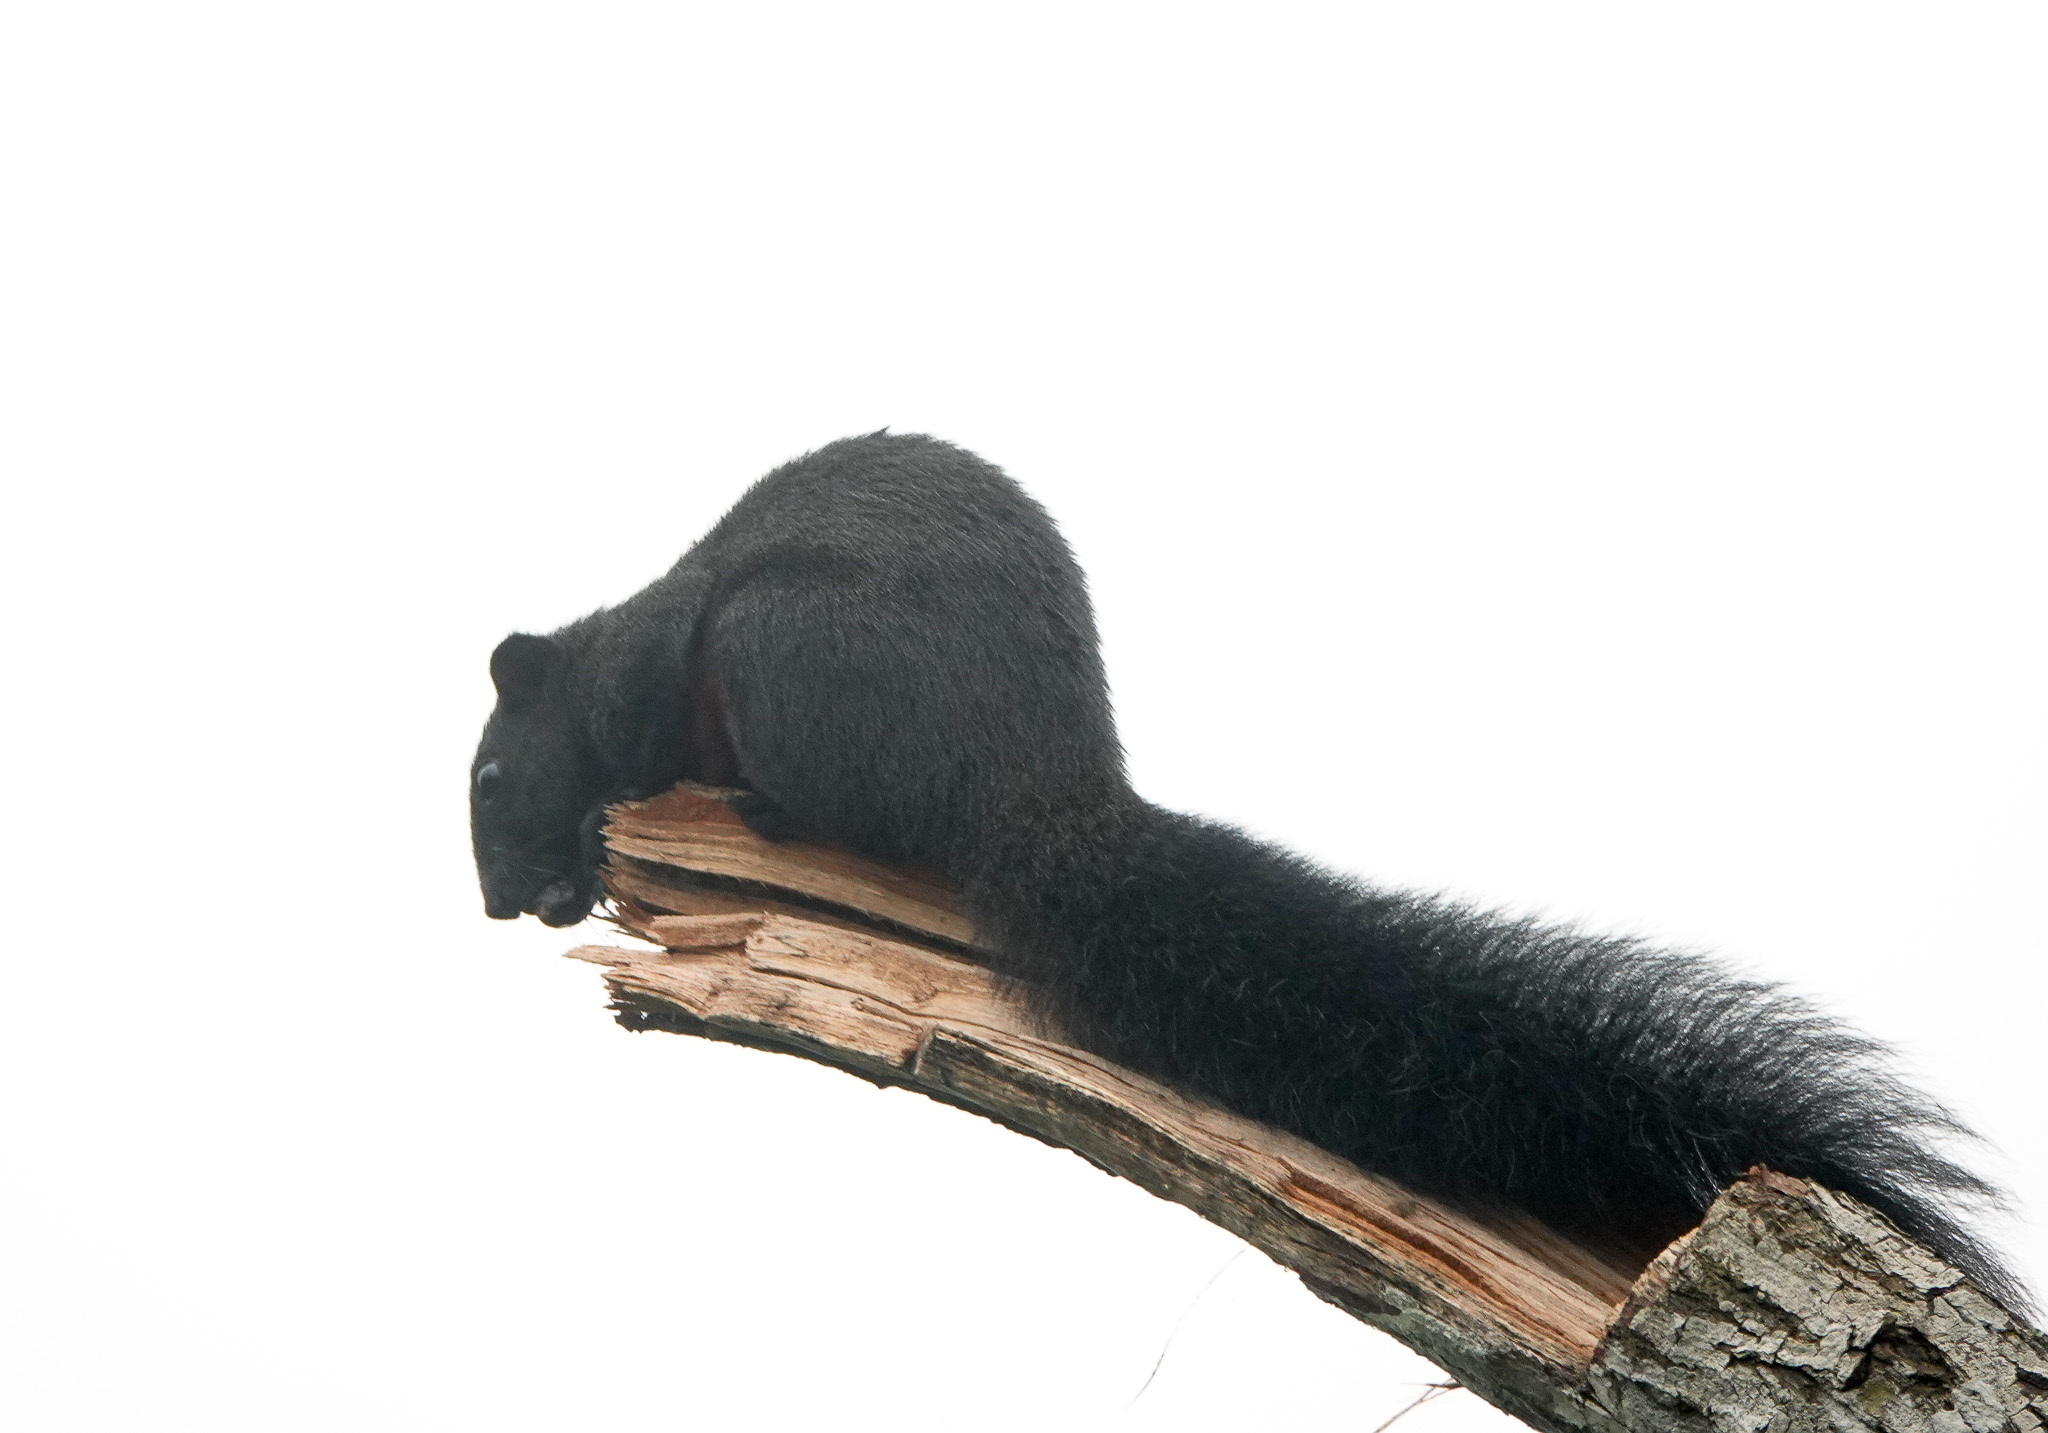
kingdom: Animalia
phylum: Chordata
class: Mammalia
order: Rodentia
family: Sciuridae
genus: Callosciurus
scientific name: Callosciurus erythraeus
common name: Pallas's squirrel
